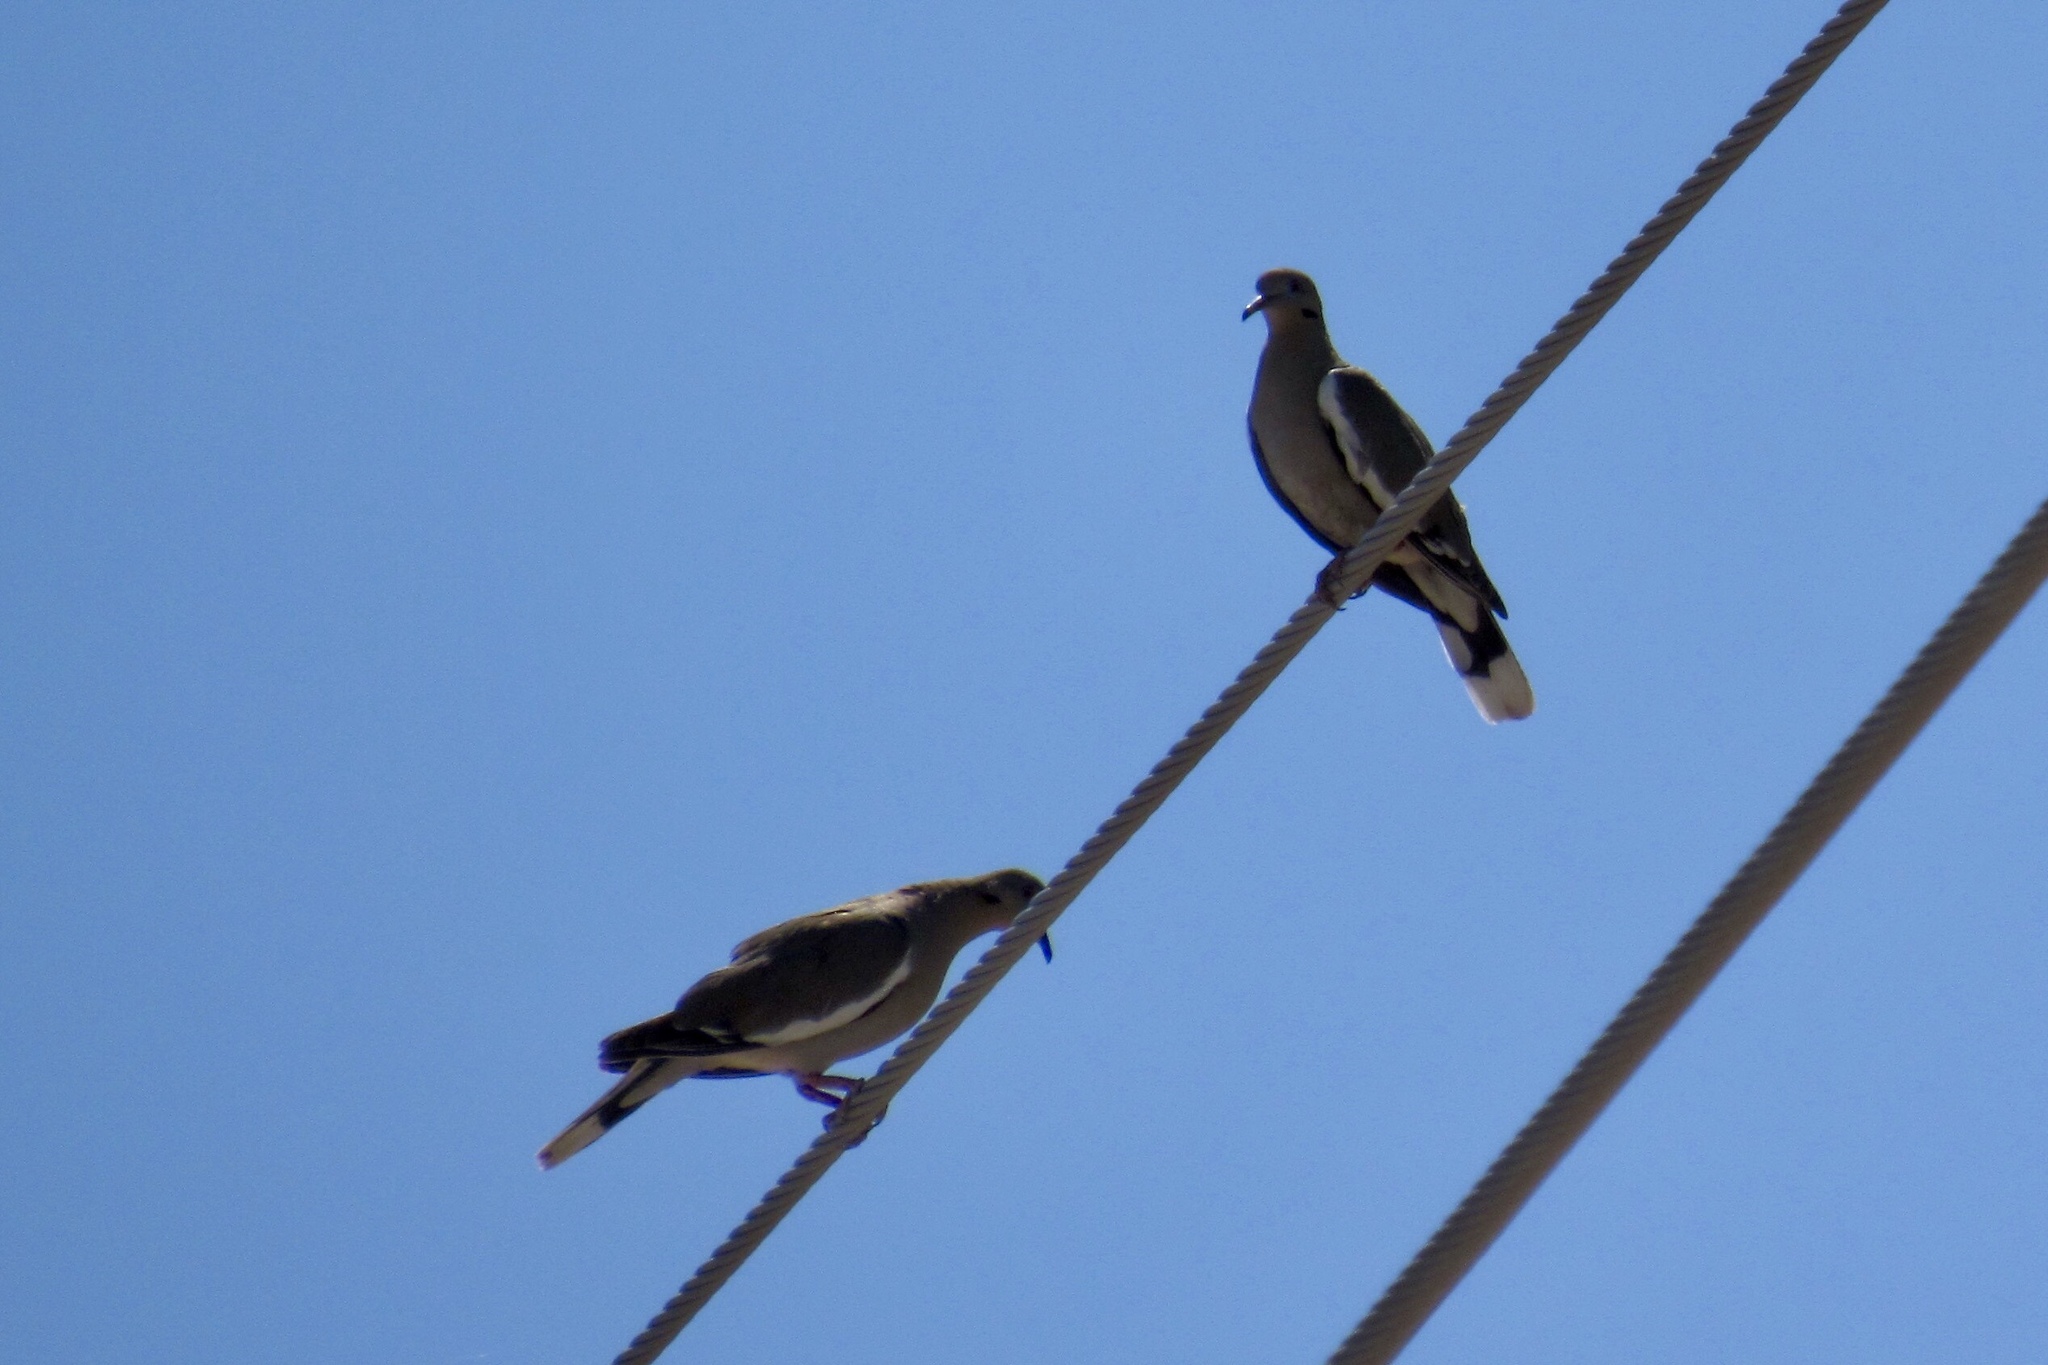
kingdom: Animalia
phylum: Chordata
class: Aves
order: Columbiformes
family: Columbidae
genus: Zenaida
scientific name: Zenaida asiatica
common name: White-winged dove
